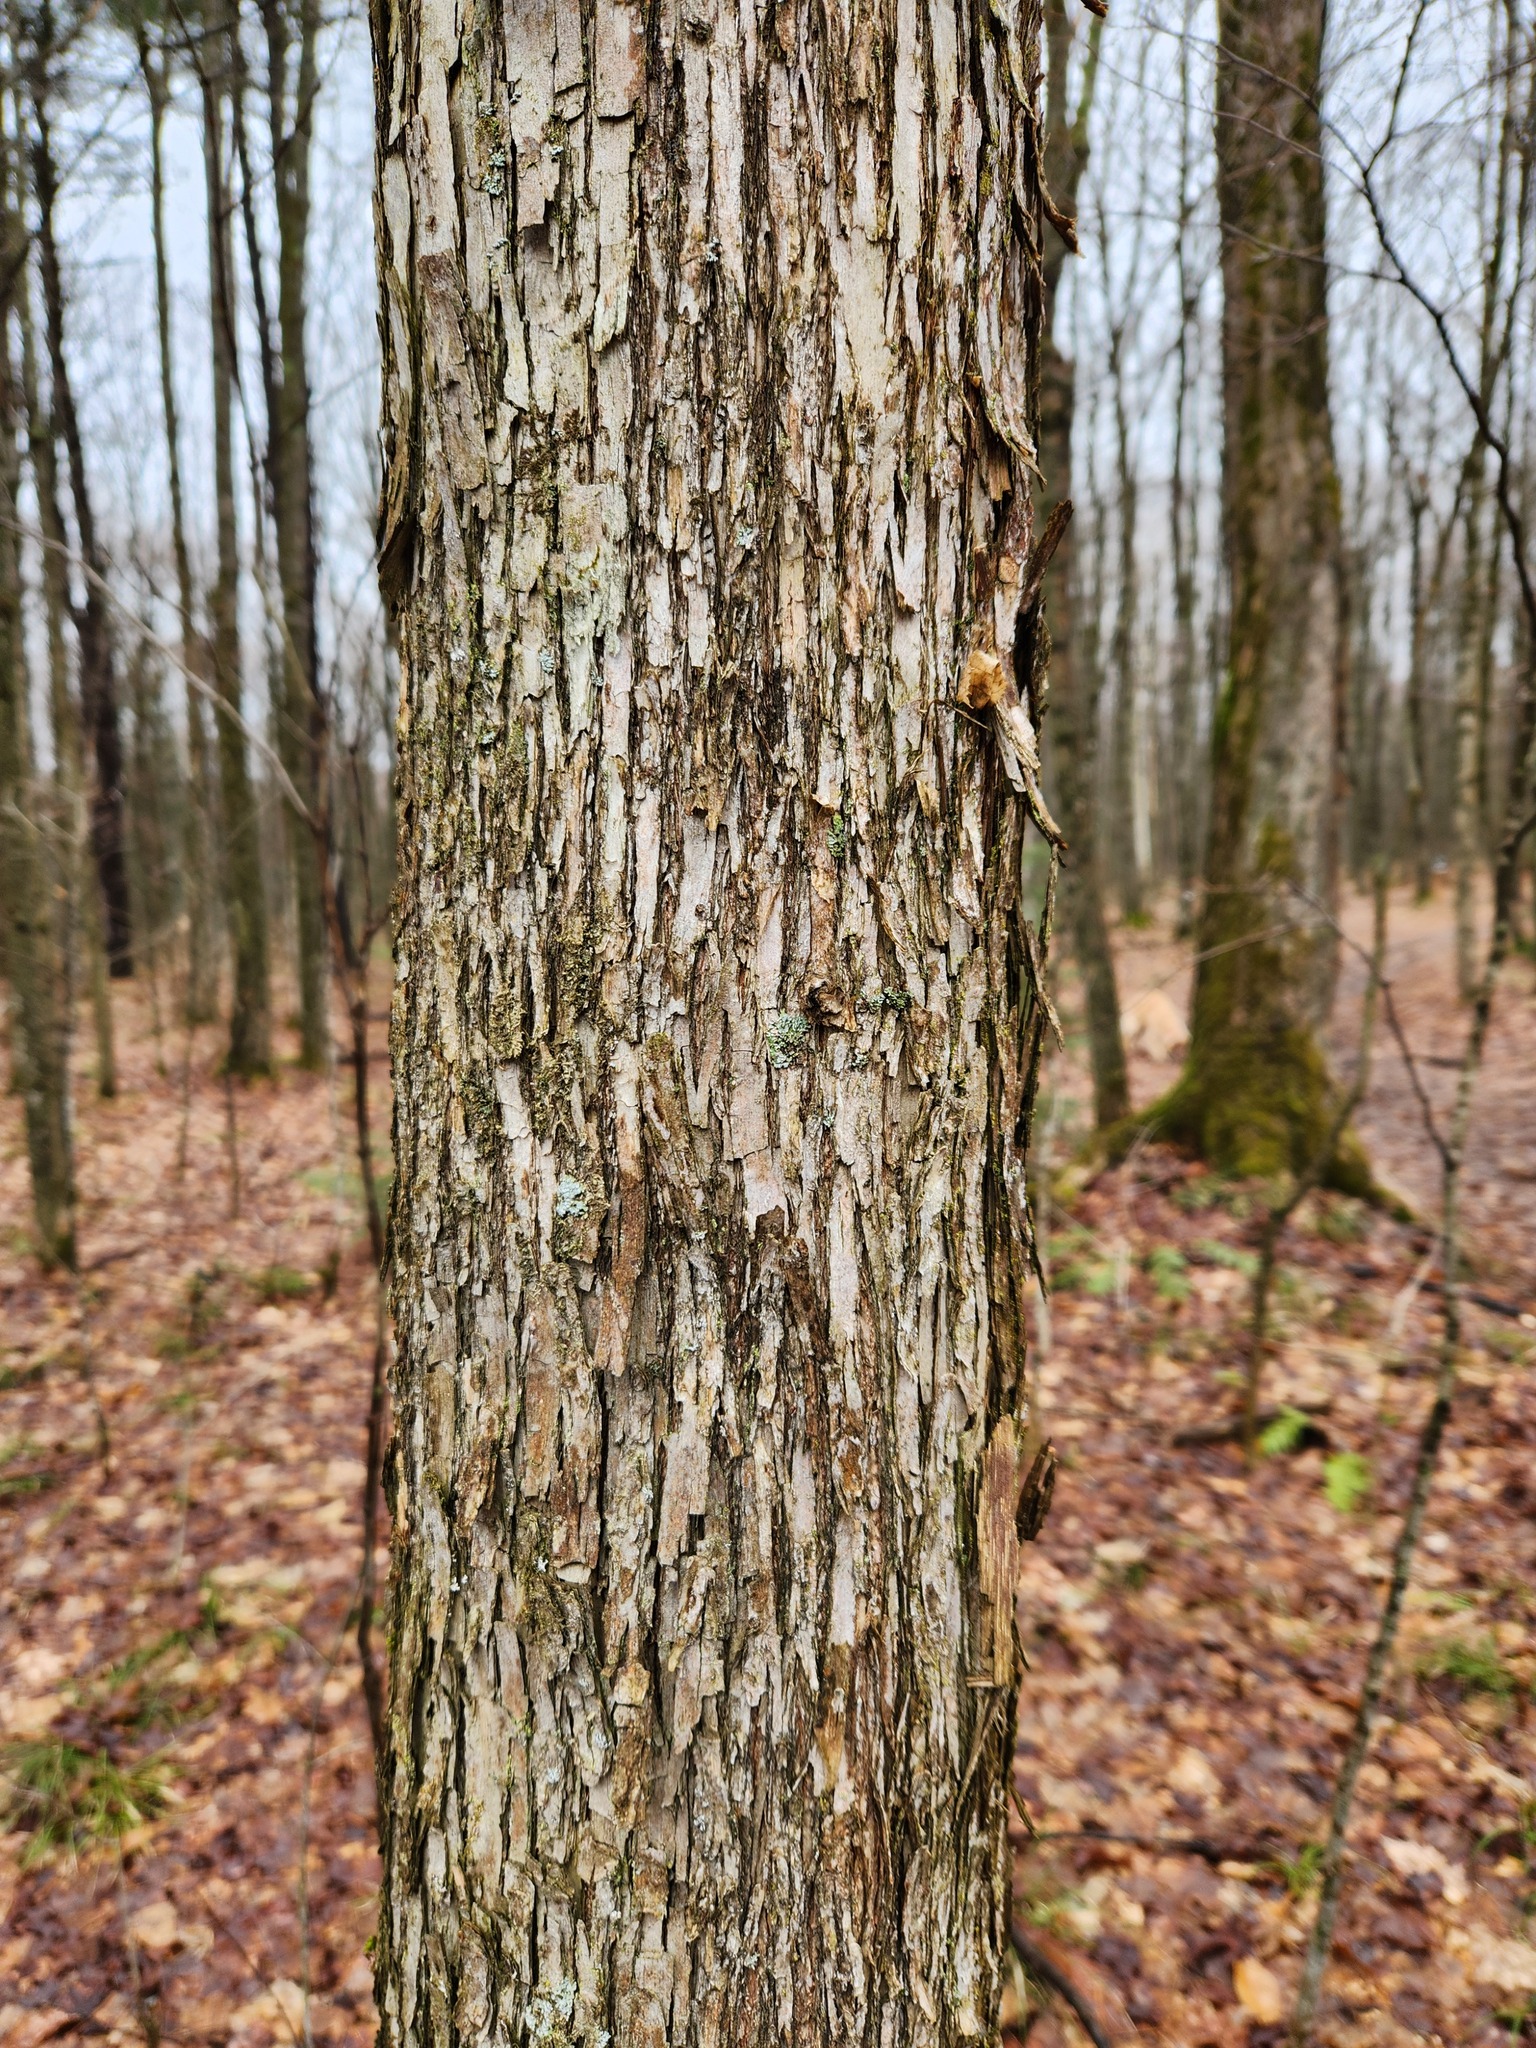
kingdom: Plantae
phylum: Tracheophyta
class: Magnoliopsida
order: Fagales
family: Betulaceae
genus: Ostrya
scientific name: Ostrya virginiana
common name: Ironwood
